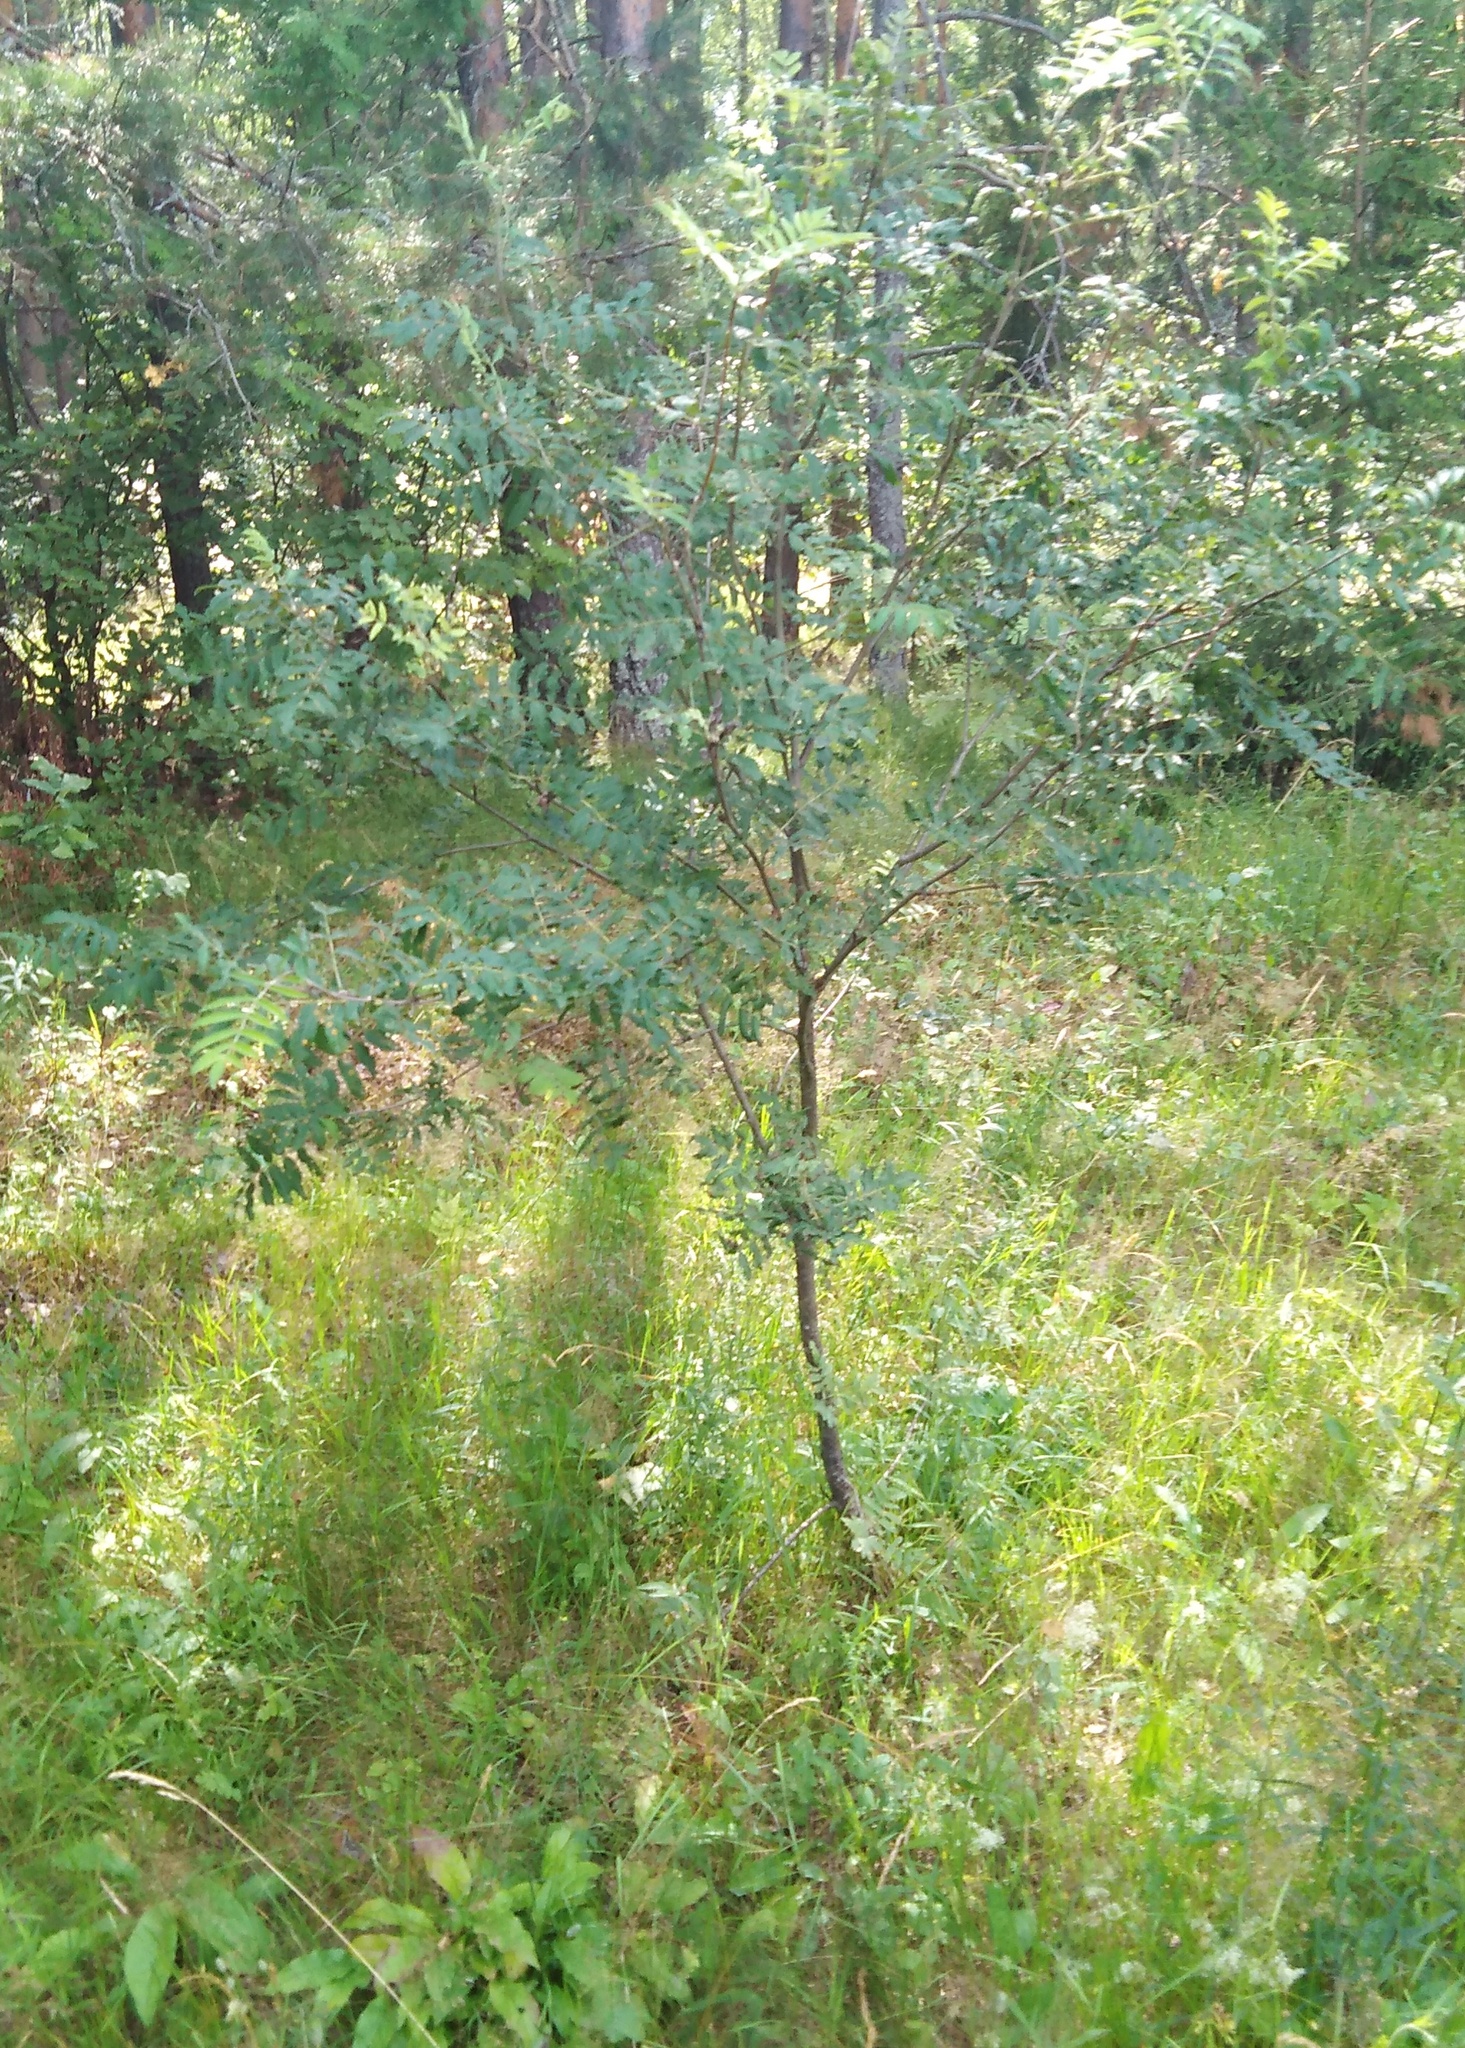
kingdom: Plantae
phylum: Tracheophyta
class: Magnoliopsida
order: Rosales
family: Rosaceae
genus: Sorbus
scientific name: Sorbus aucuparia
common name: Rowan
